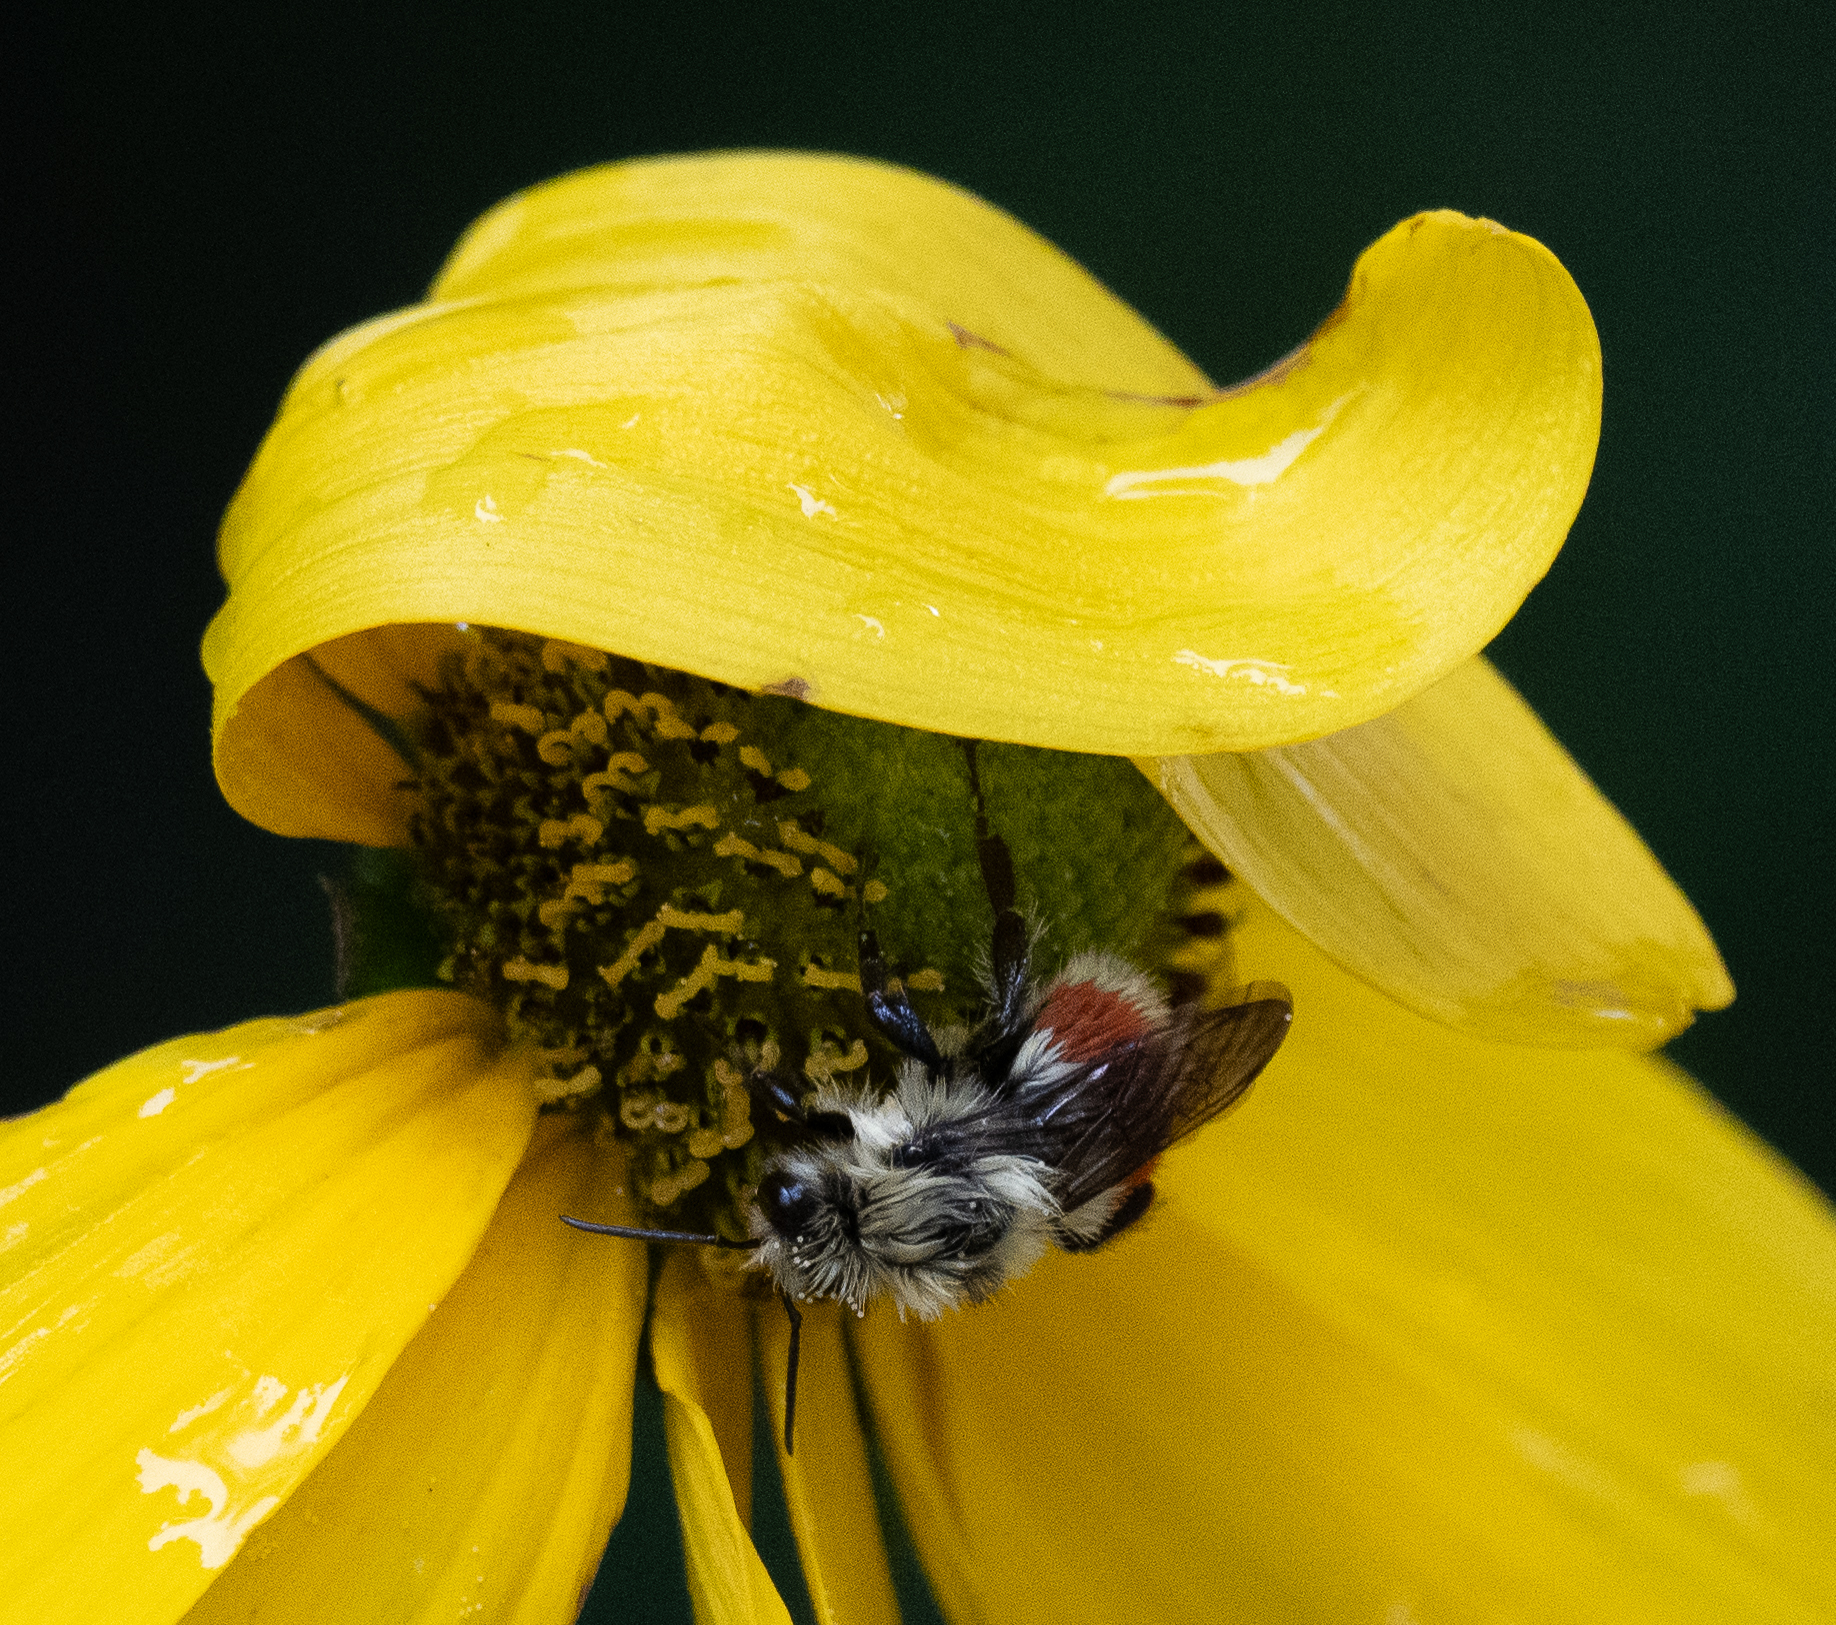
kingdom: Animalia
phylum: Arthropoda
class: Insecta
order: Hymenoptera
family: Apidae
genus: Bombus
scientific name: Bombus huntii
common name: Hunt bumble bee
